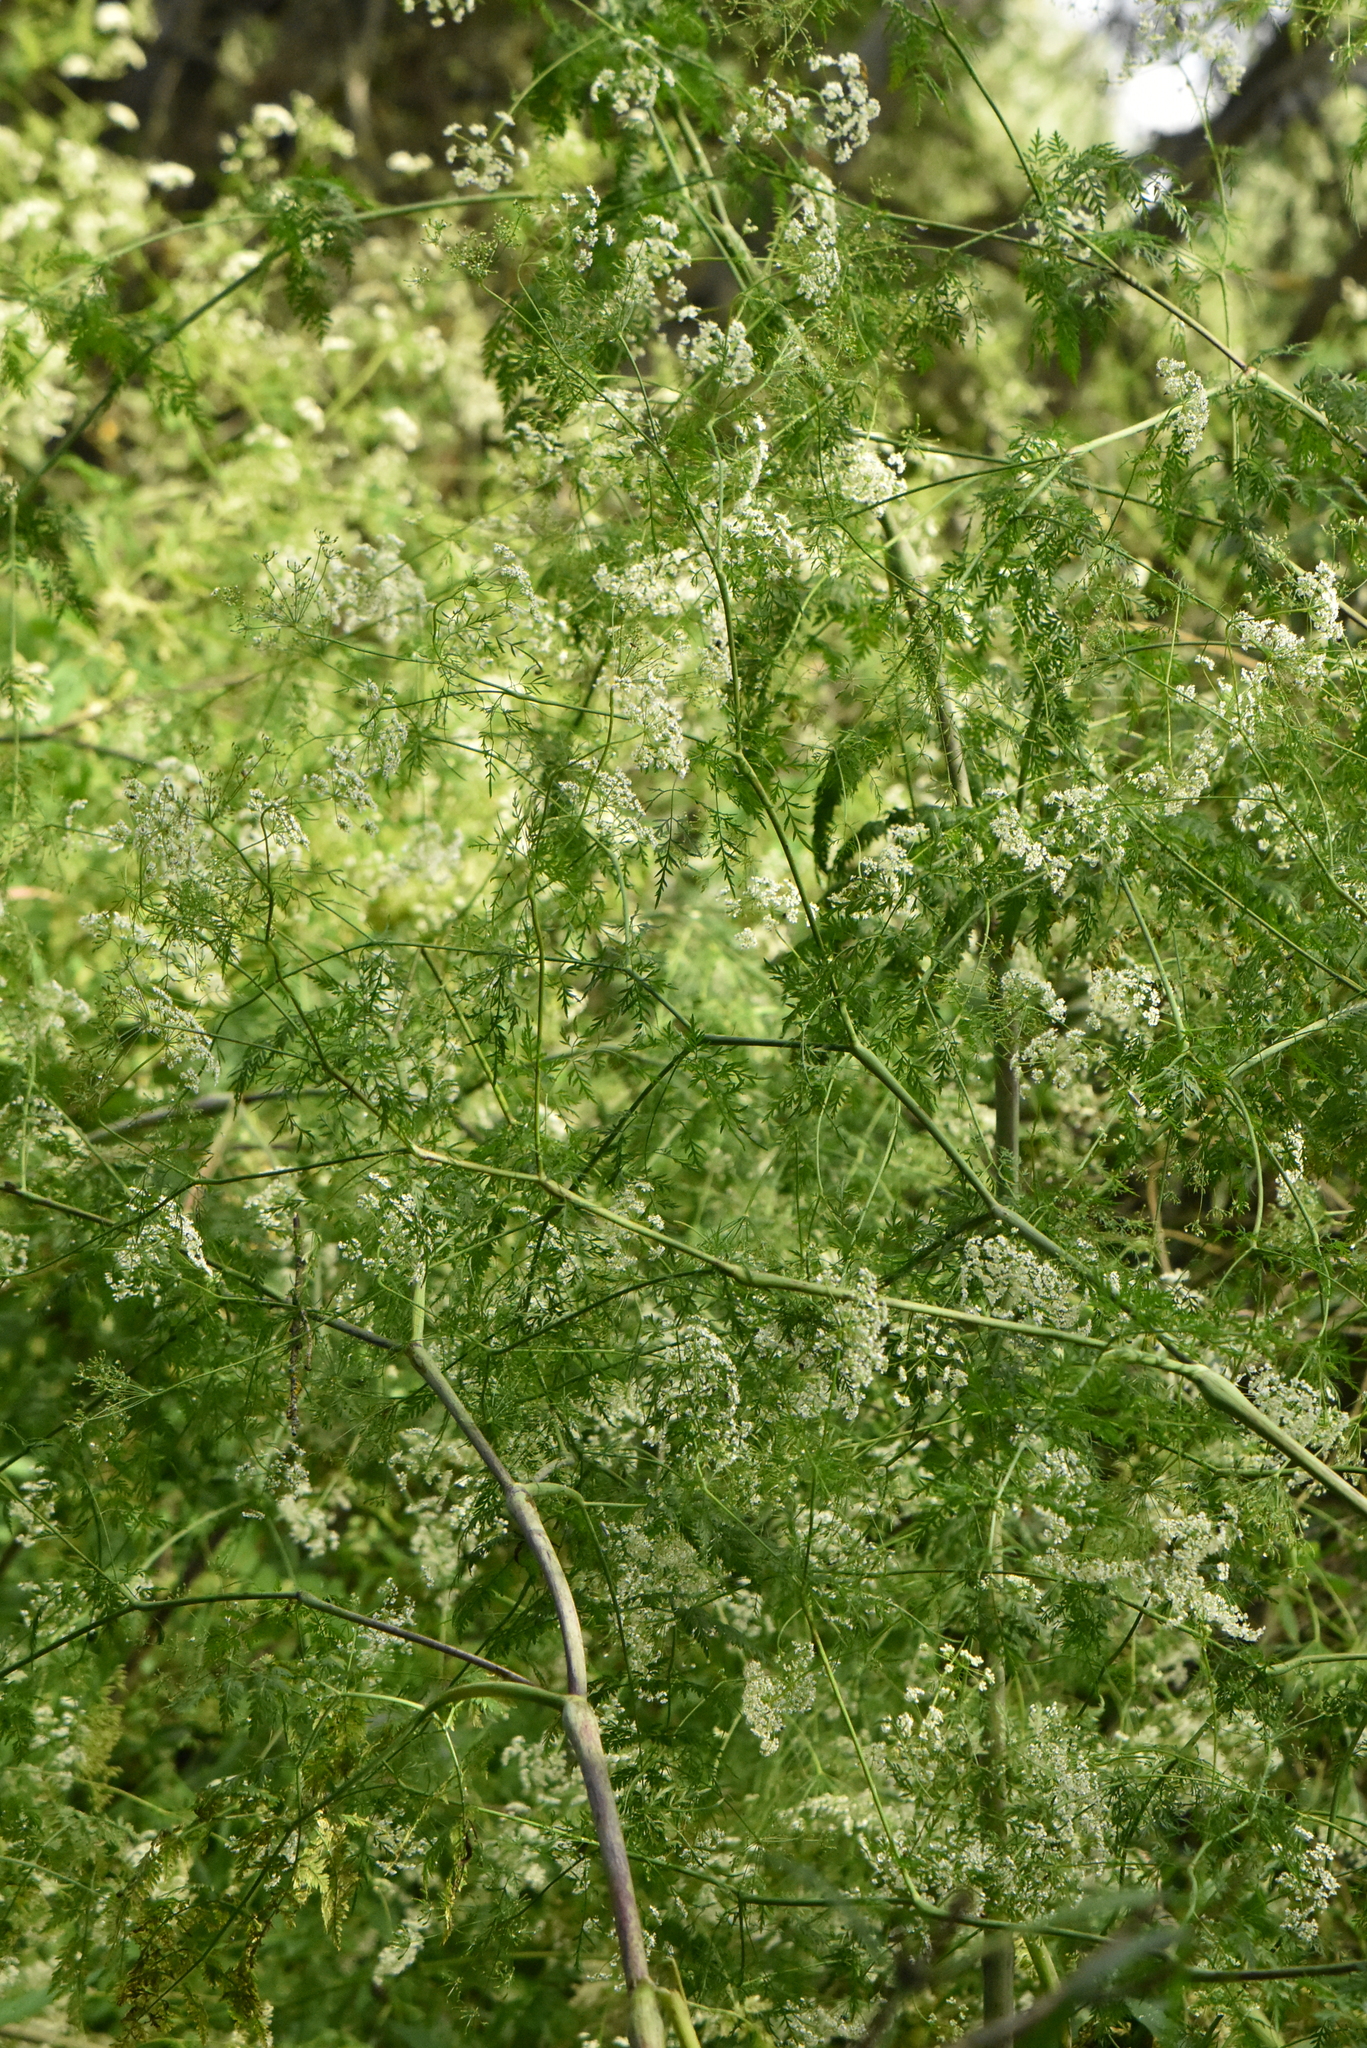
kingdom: Plantae
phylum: Tracheophyta
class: Magnoliopsida
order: Apiales
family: Apiaceae
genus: Chaerophyllum
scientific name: Chaerophyllum bulbosum
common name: Bulbous chervil
